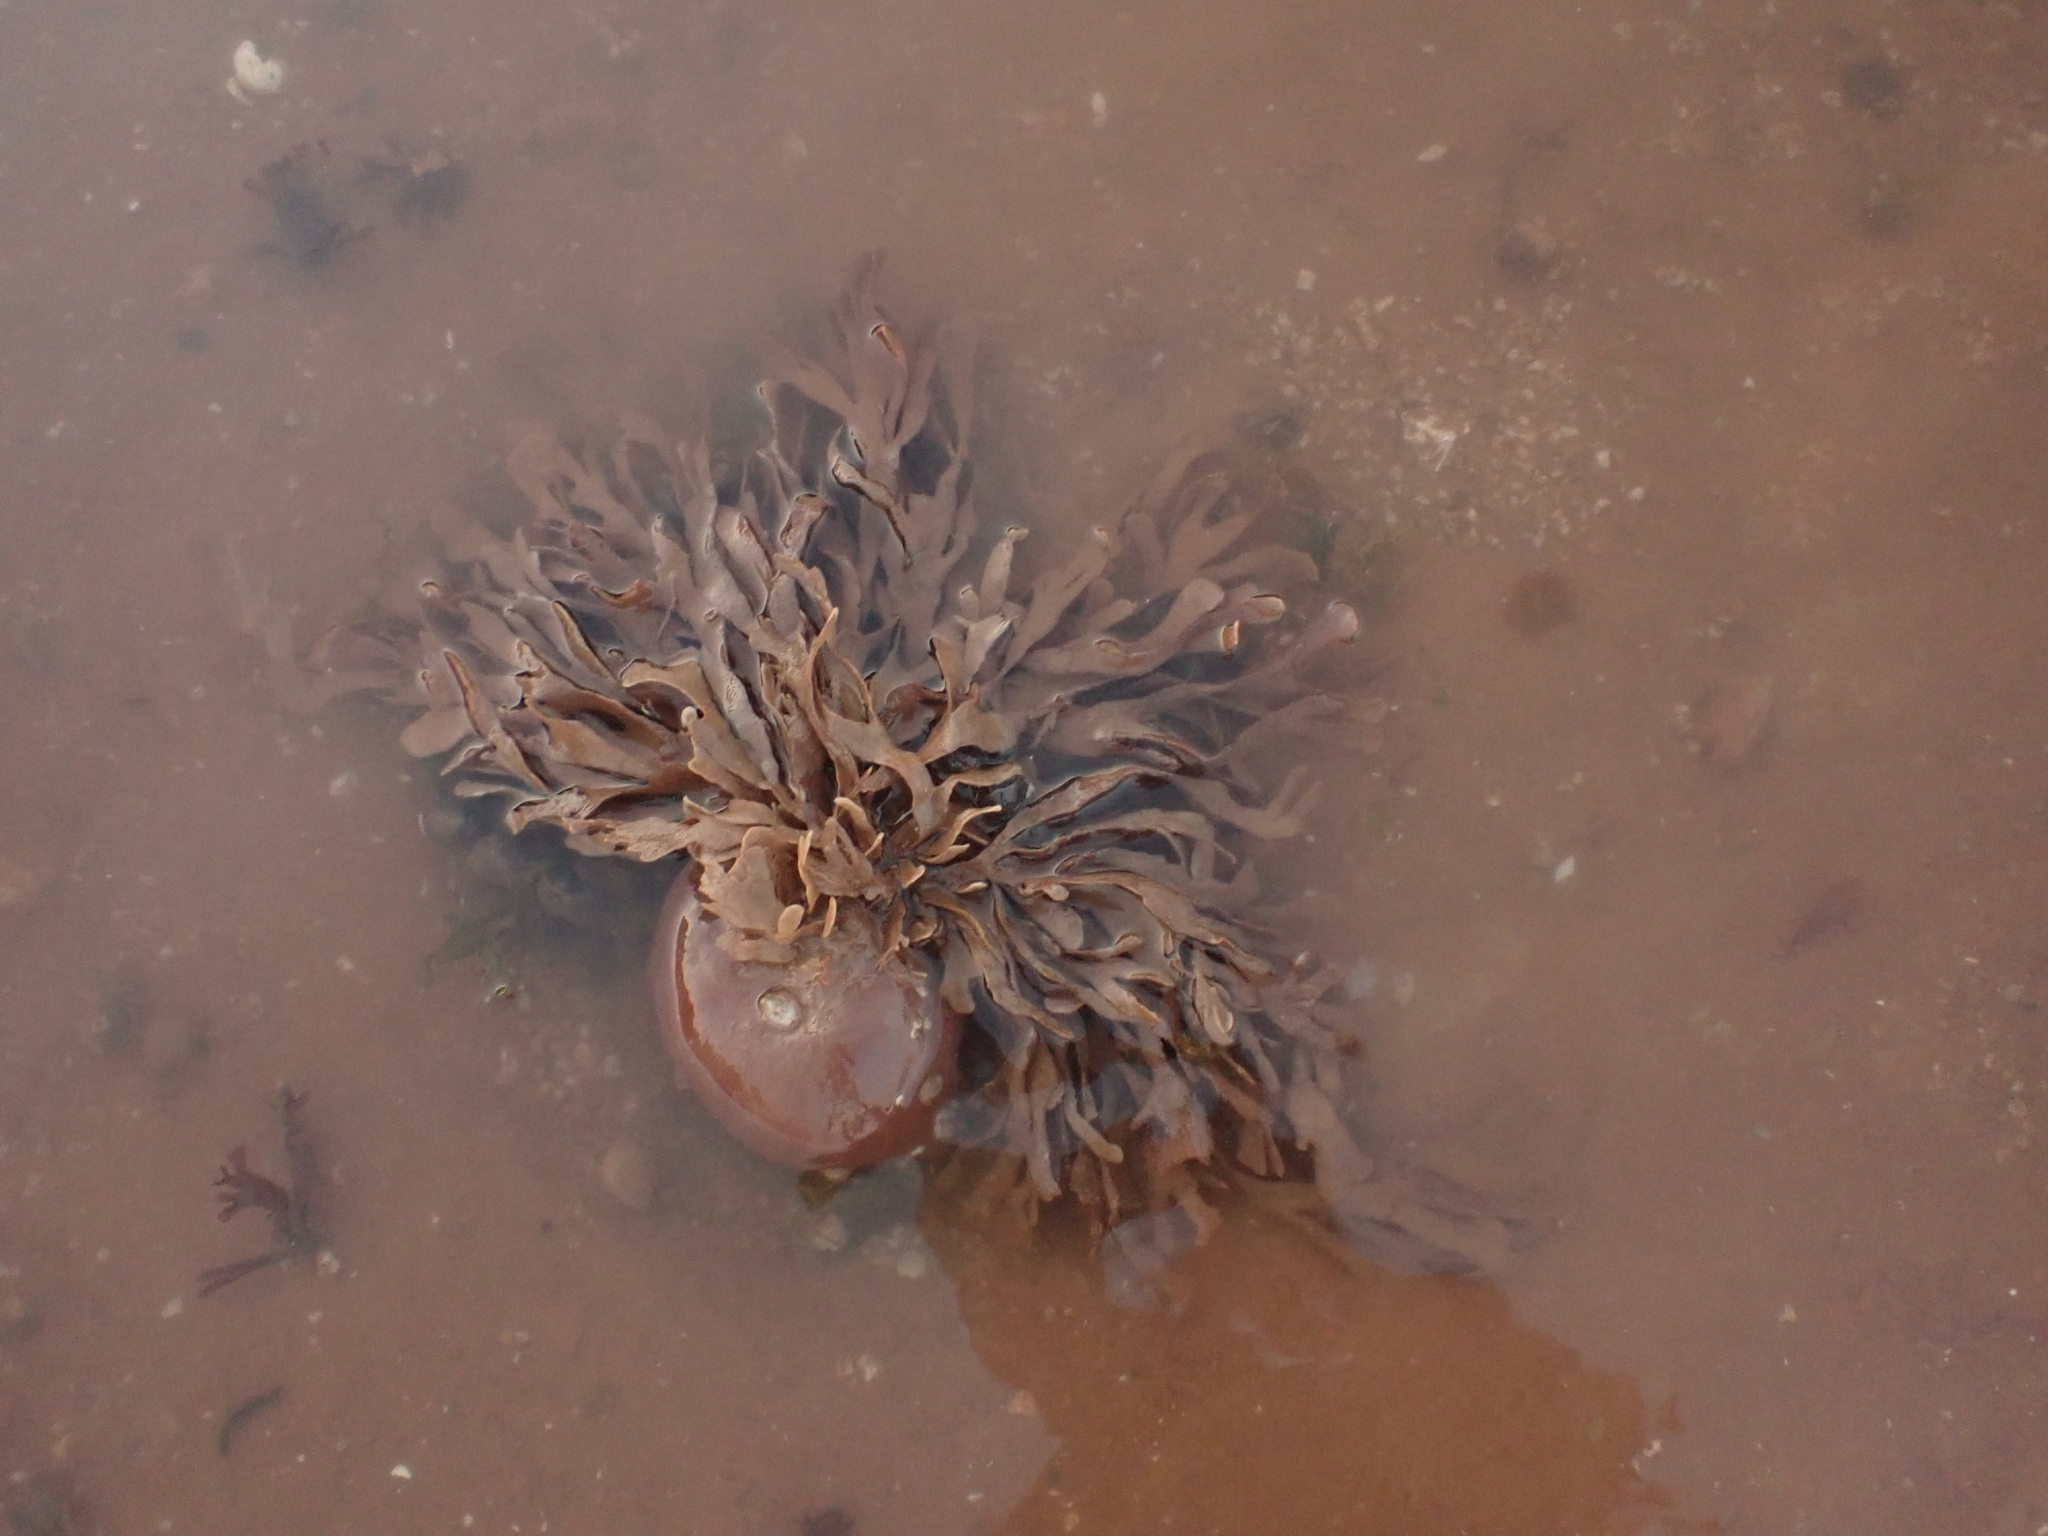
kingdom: Animalia
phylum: Bryozoa
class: Gymnolaemata
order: Cheilostomatida
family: Flustridae
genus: Flustra
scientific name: Flustra foliacea
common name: Hornwrack
